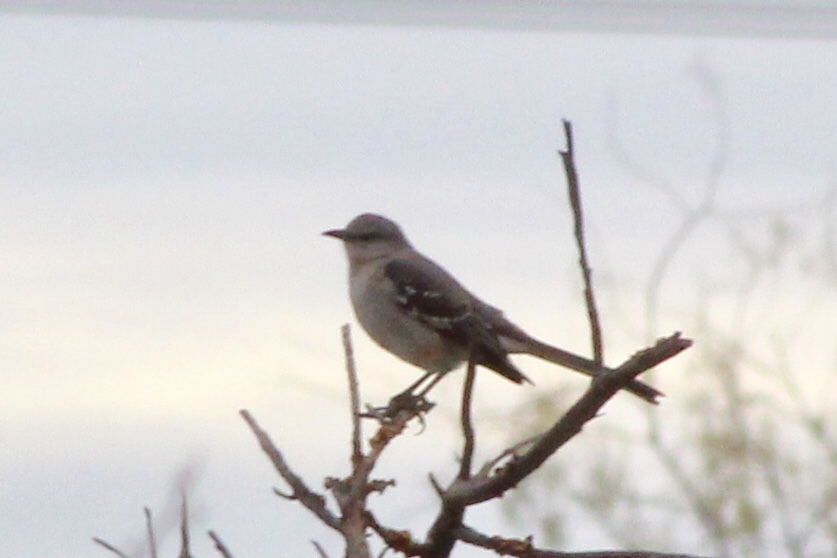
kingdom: Animalia
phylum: Chordata
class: Aves
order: Passeriformes
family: Mimidae
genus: Mimus
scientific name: Mimus polyglottos
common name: Northern mockingbird
